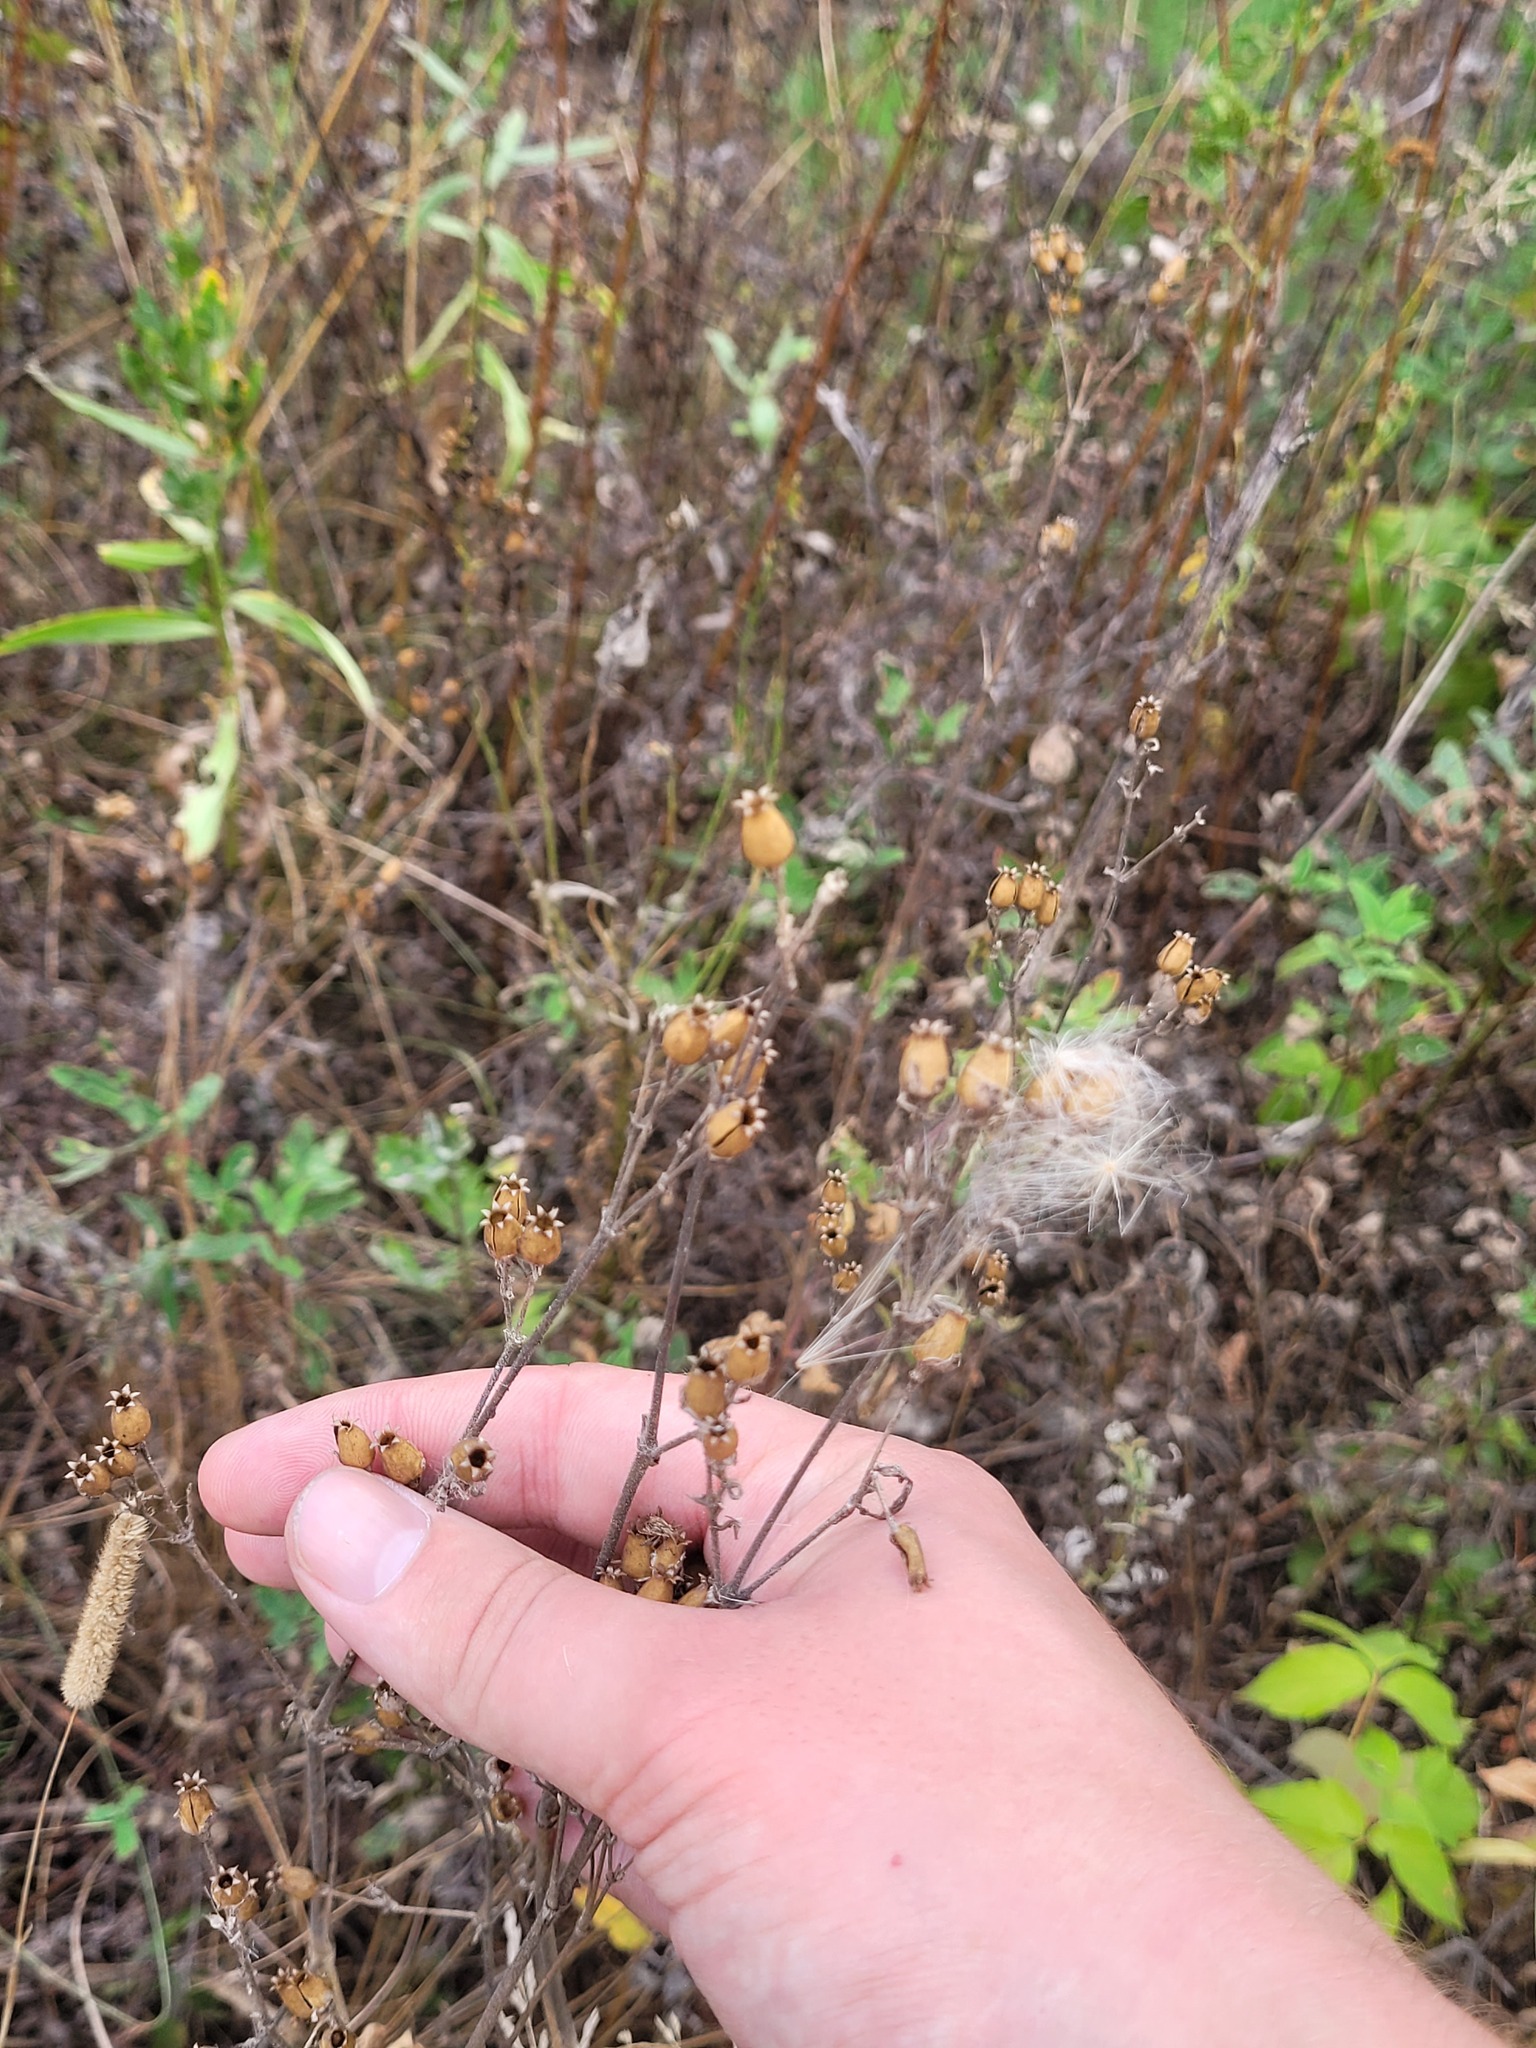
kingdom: Plantae
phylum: Tracheophyta
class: Magnoliopsida
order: Caryophyllales
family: Caryophyllaceae
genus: Silene
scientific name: Silene nutans
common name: Nottingham catchfly
